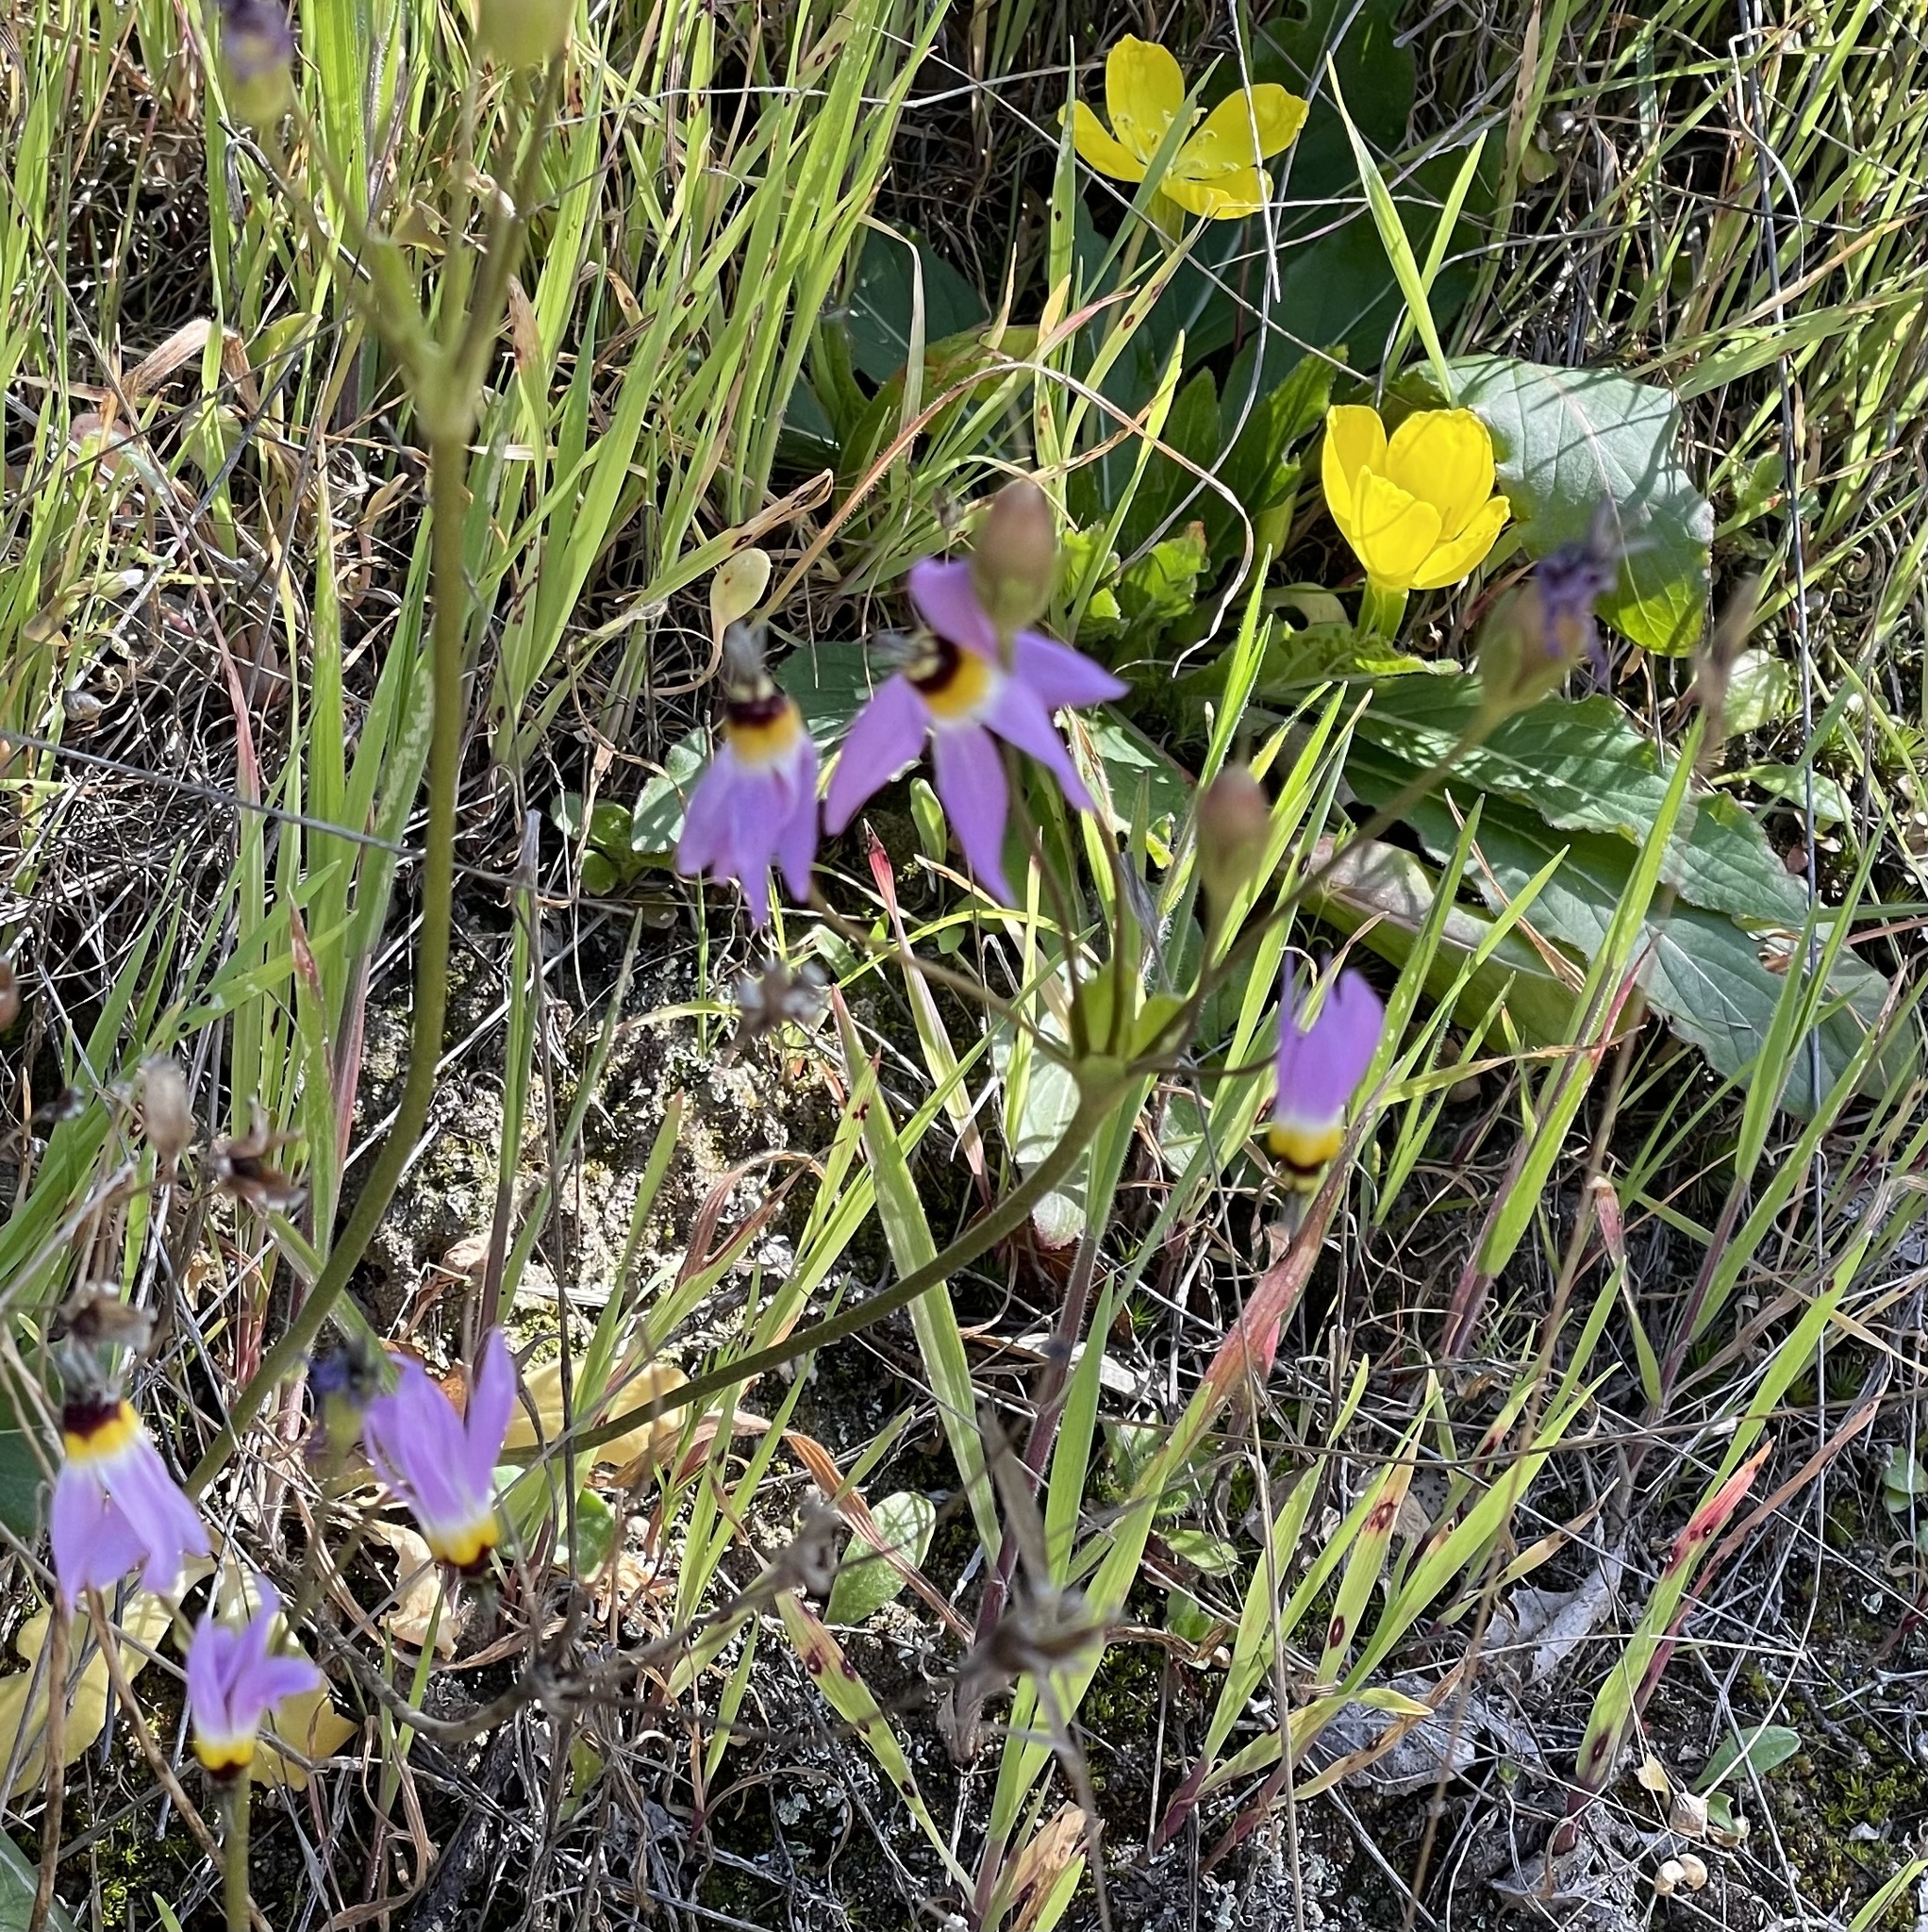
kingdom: Plantae
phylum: Tracheophyta
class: Magnoliopsida
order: Ericales
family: Primulaceae
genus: Dodecatheon
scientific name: Dodecatheon clevelandii
